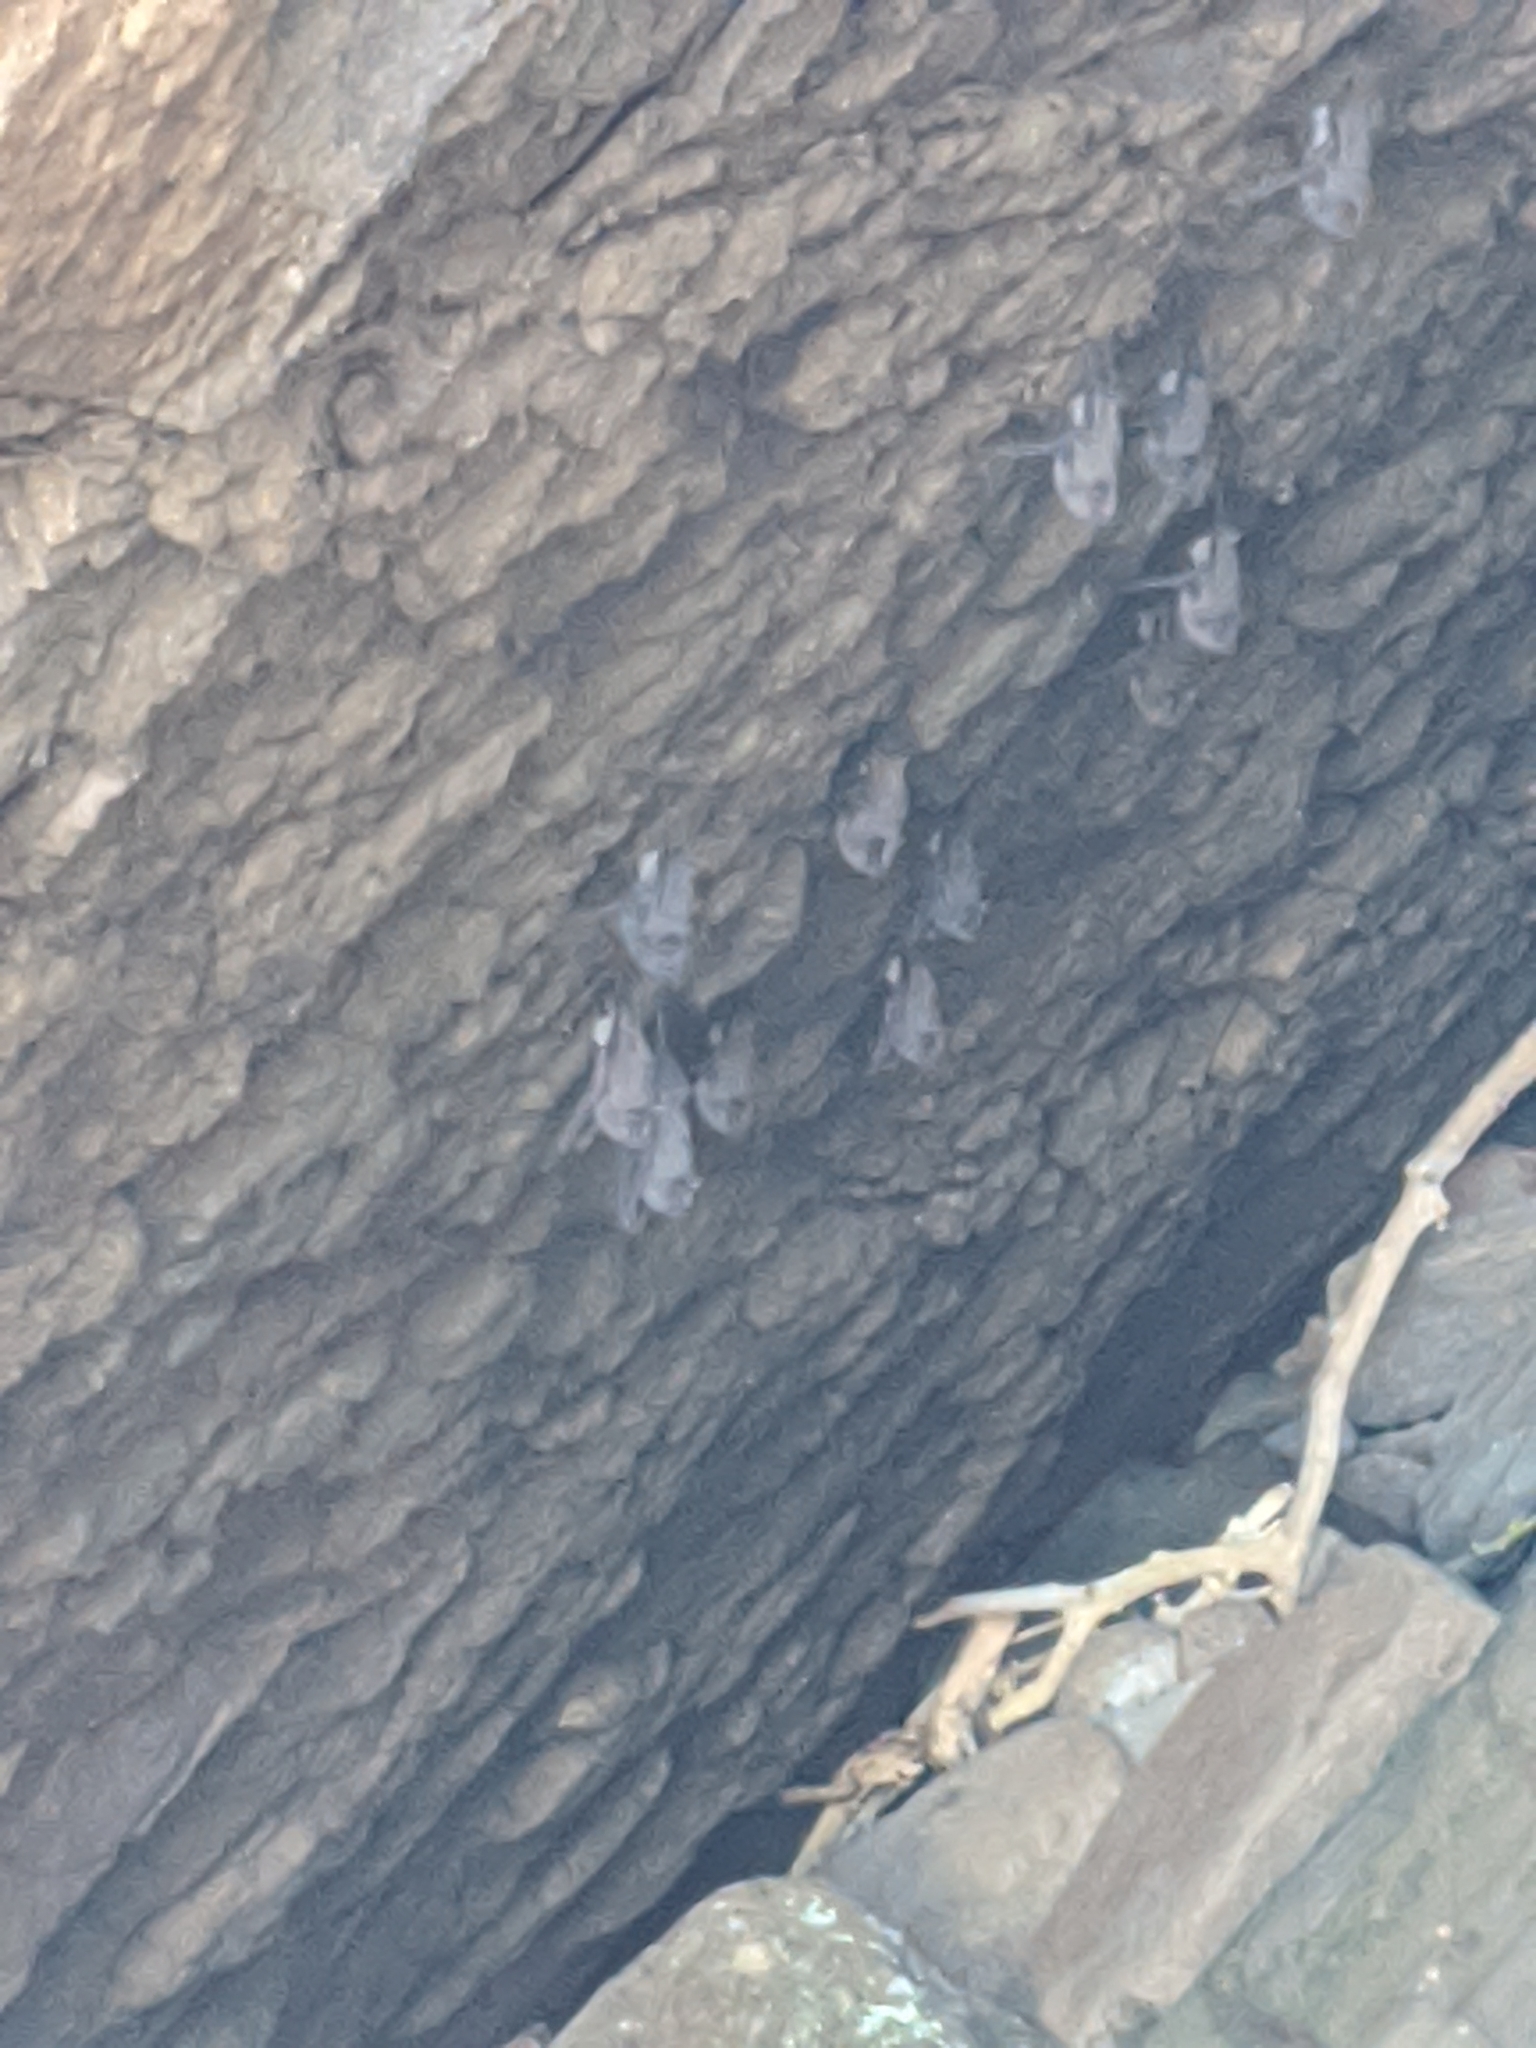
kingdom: Animalia
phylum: Chordata
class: Mammalia
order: Chiroptera
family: Emballonuridae
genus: Balantiopteryx
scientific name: Balantiopteryx plicata
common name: Gray sac-winged bat
